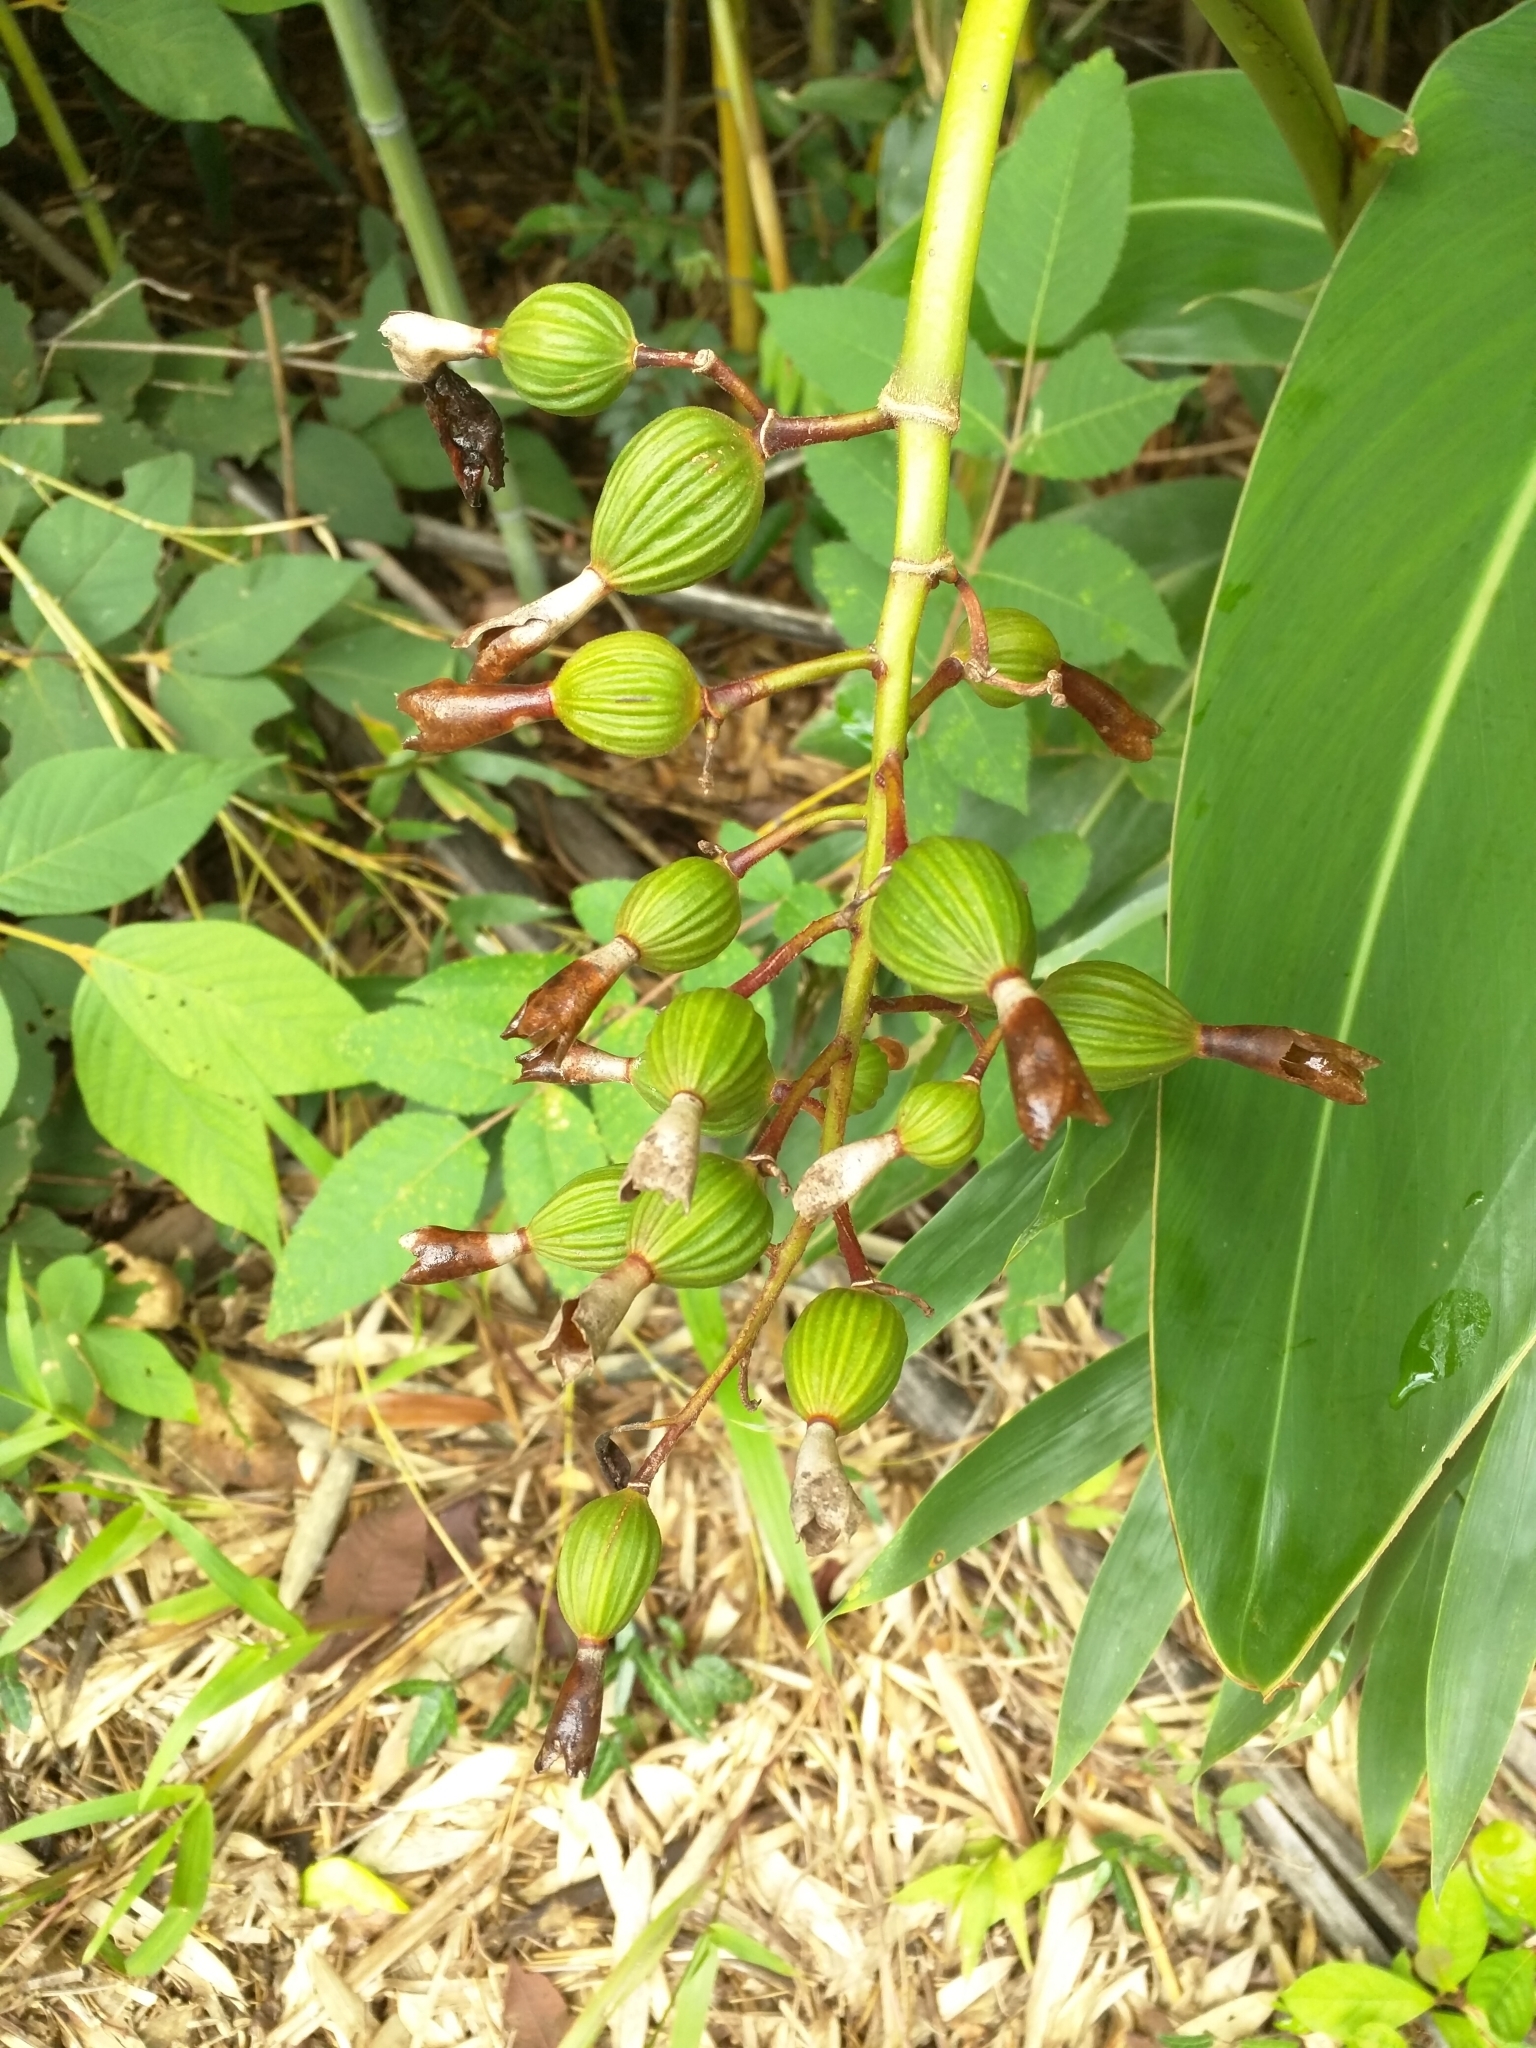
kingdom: Plantae
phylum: Tracheophyta
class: Liliopsida
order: Zingiberales
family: Zingiberaceae
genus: Alpinia
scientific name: Alpinia zerumbet
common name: Shellplant
